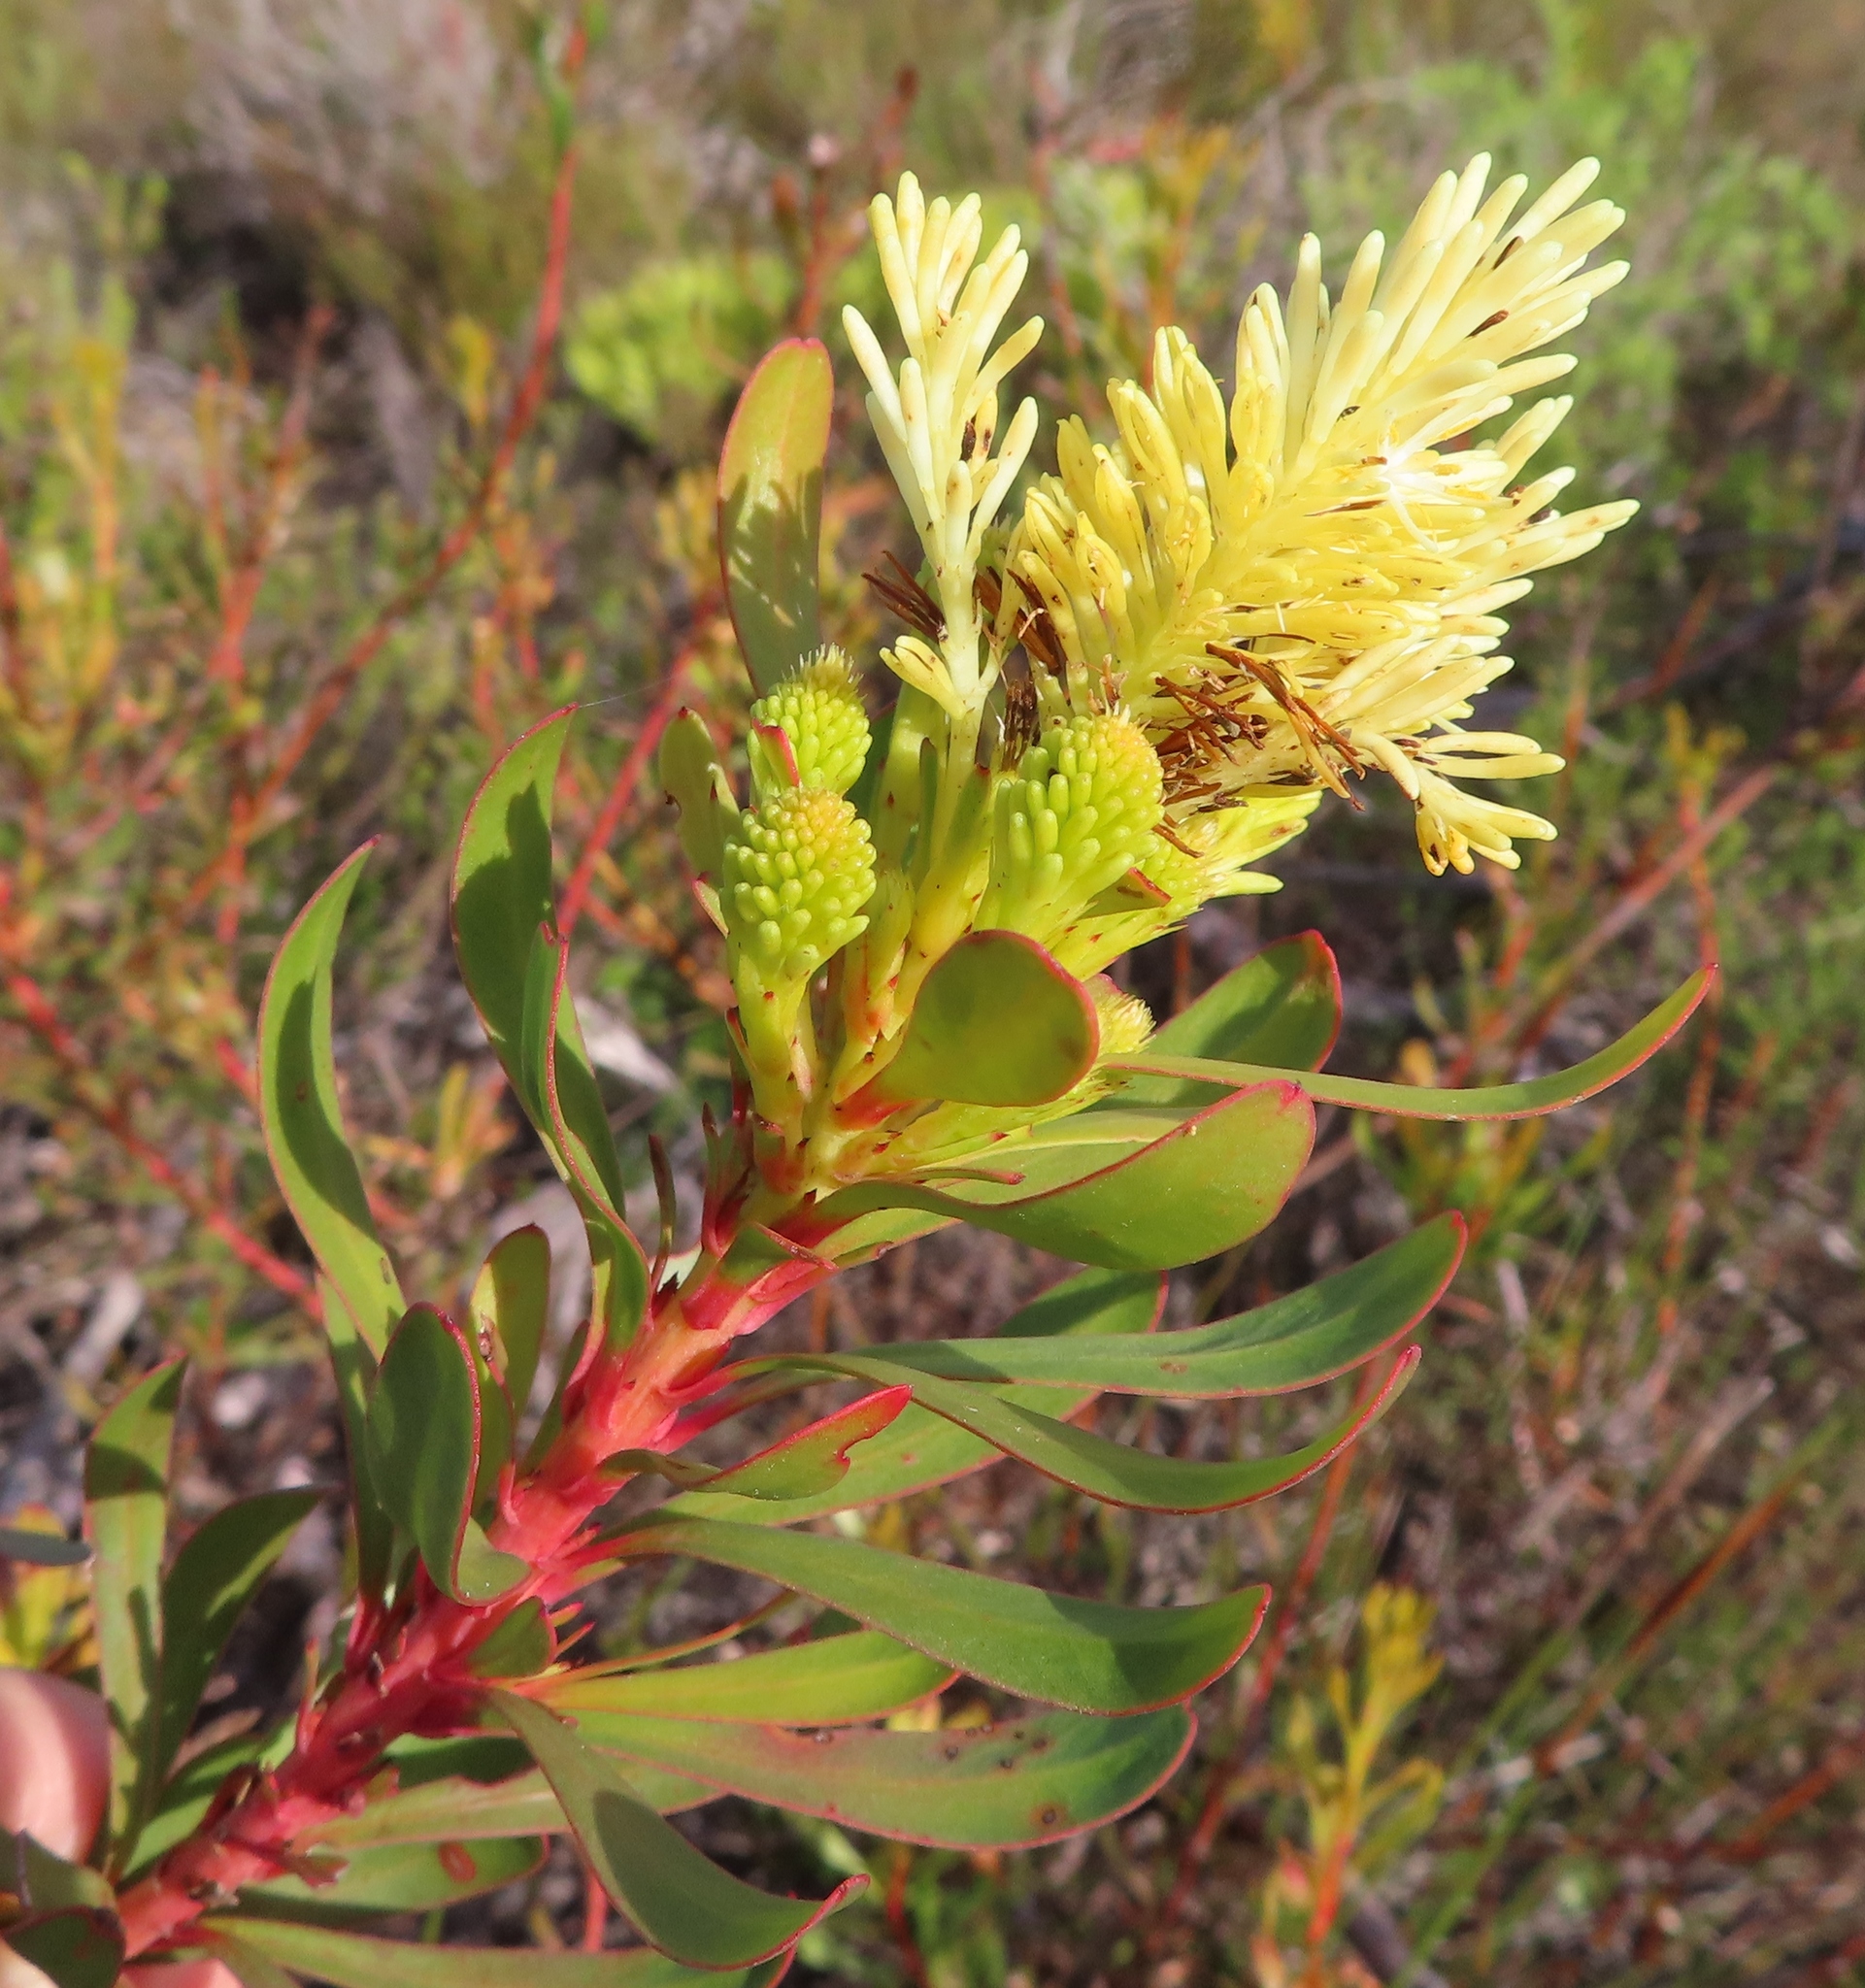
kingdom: Plantae
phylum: Tracheophyta
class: Magnoliopsida
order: Proteales
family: Proteaceae
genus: Aulax
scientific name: Aulax umbellata
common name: Broad-leaf featherbush
